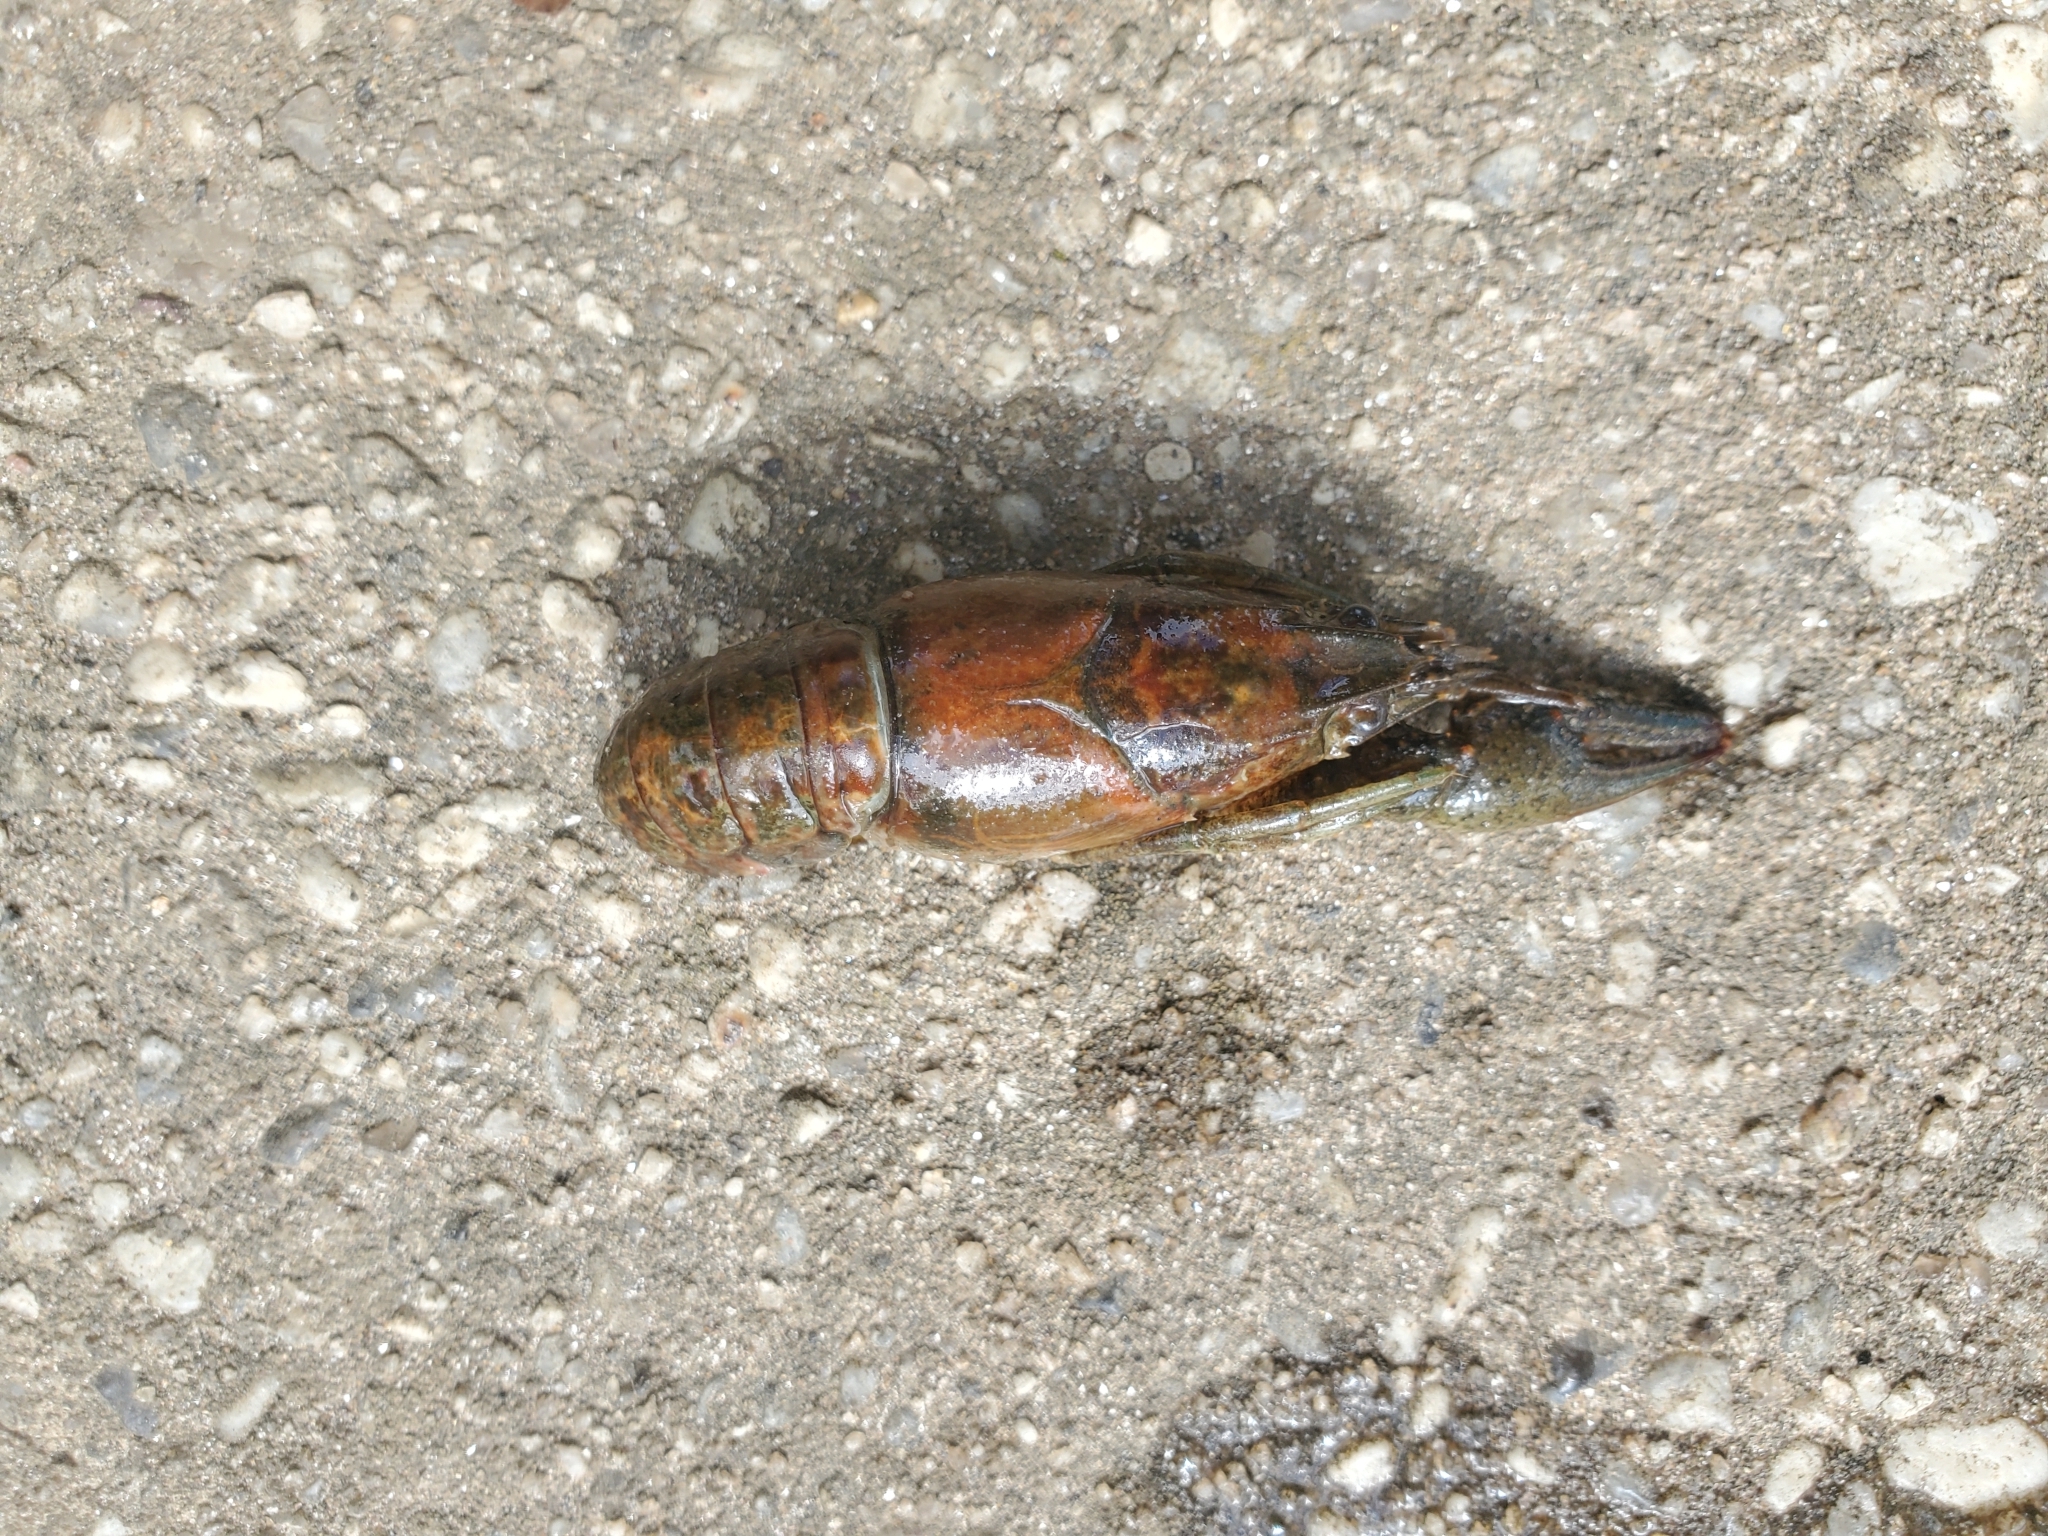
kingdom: Animalia
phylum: Arthropoda
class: Malacostraca
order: Decapoda
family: Cambaridae
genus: Faxonius
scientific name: Faxonius virilis
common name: Virile crayfish
